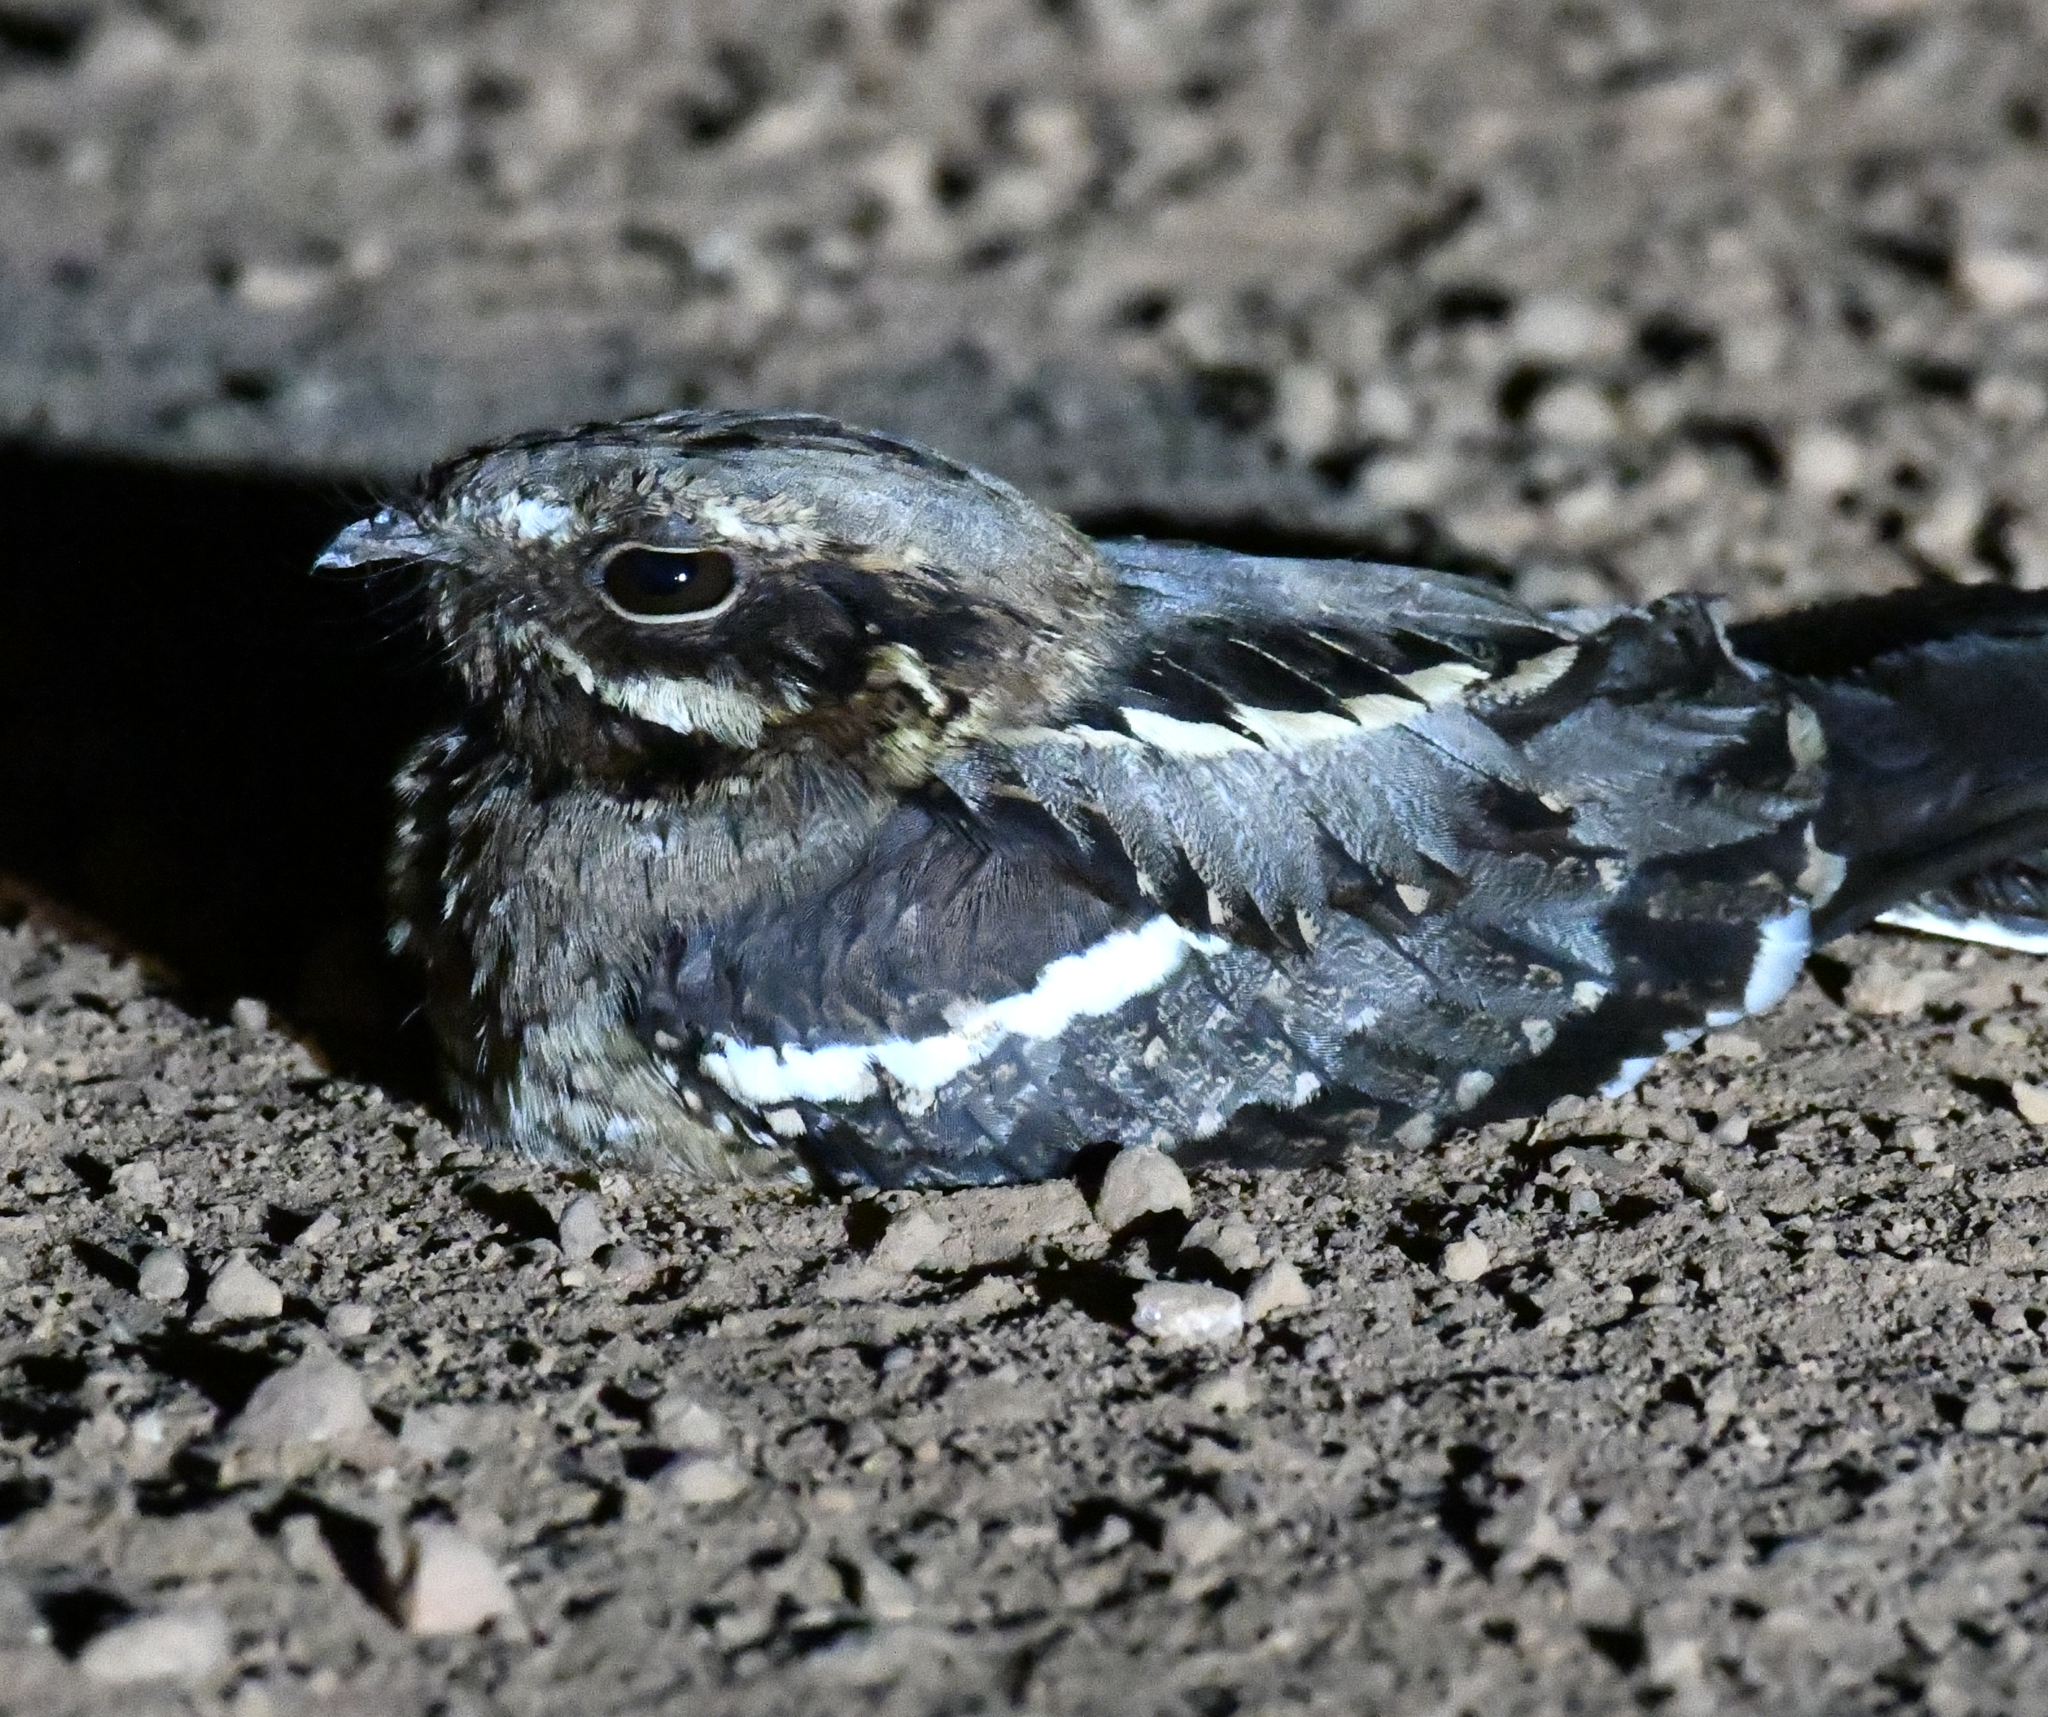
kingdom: Animalia
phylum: Chordata
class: Aves
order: Caprimulgiformes
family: Caprimulgidae
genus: Caprimulgus
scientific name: Caprimulgus climacurus
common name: Long-tailed nightjar
